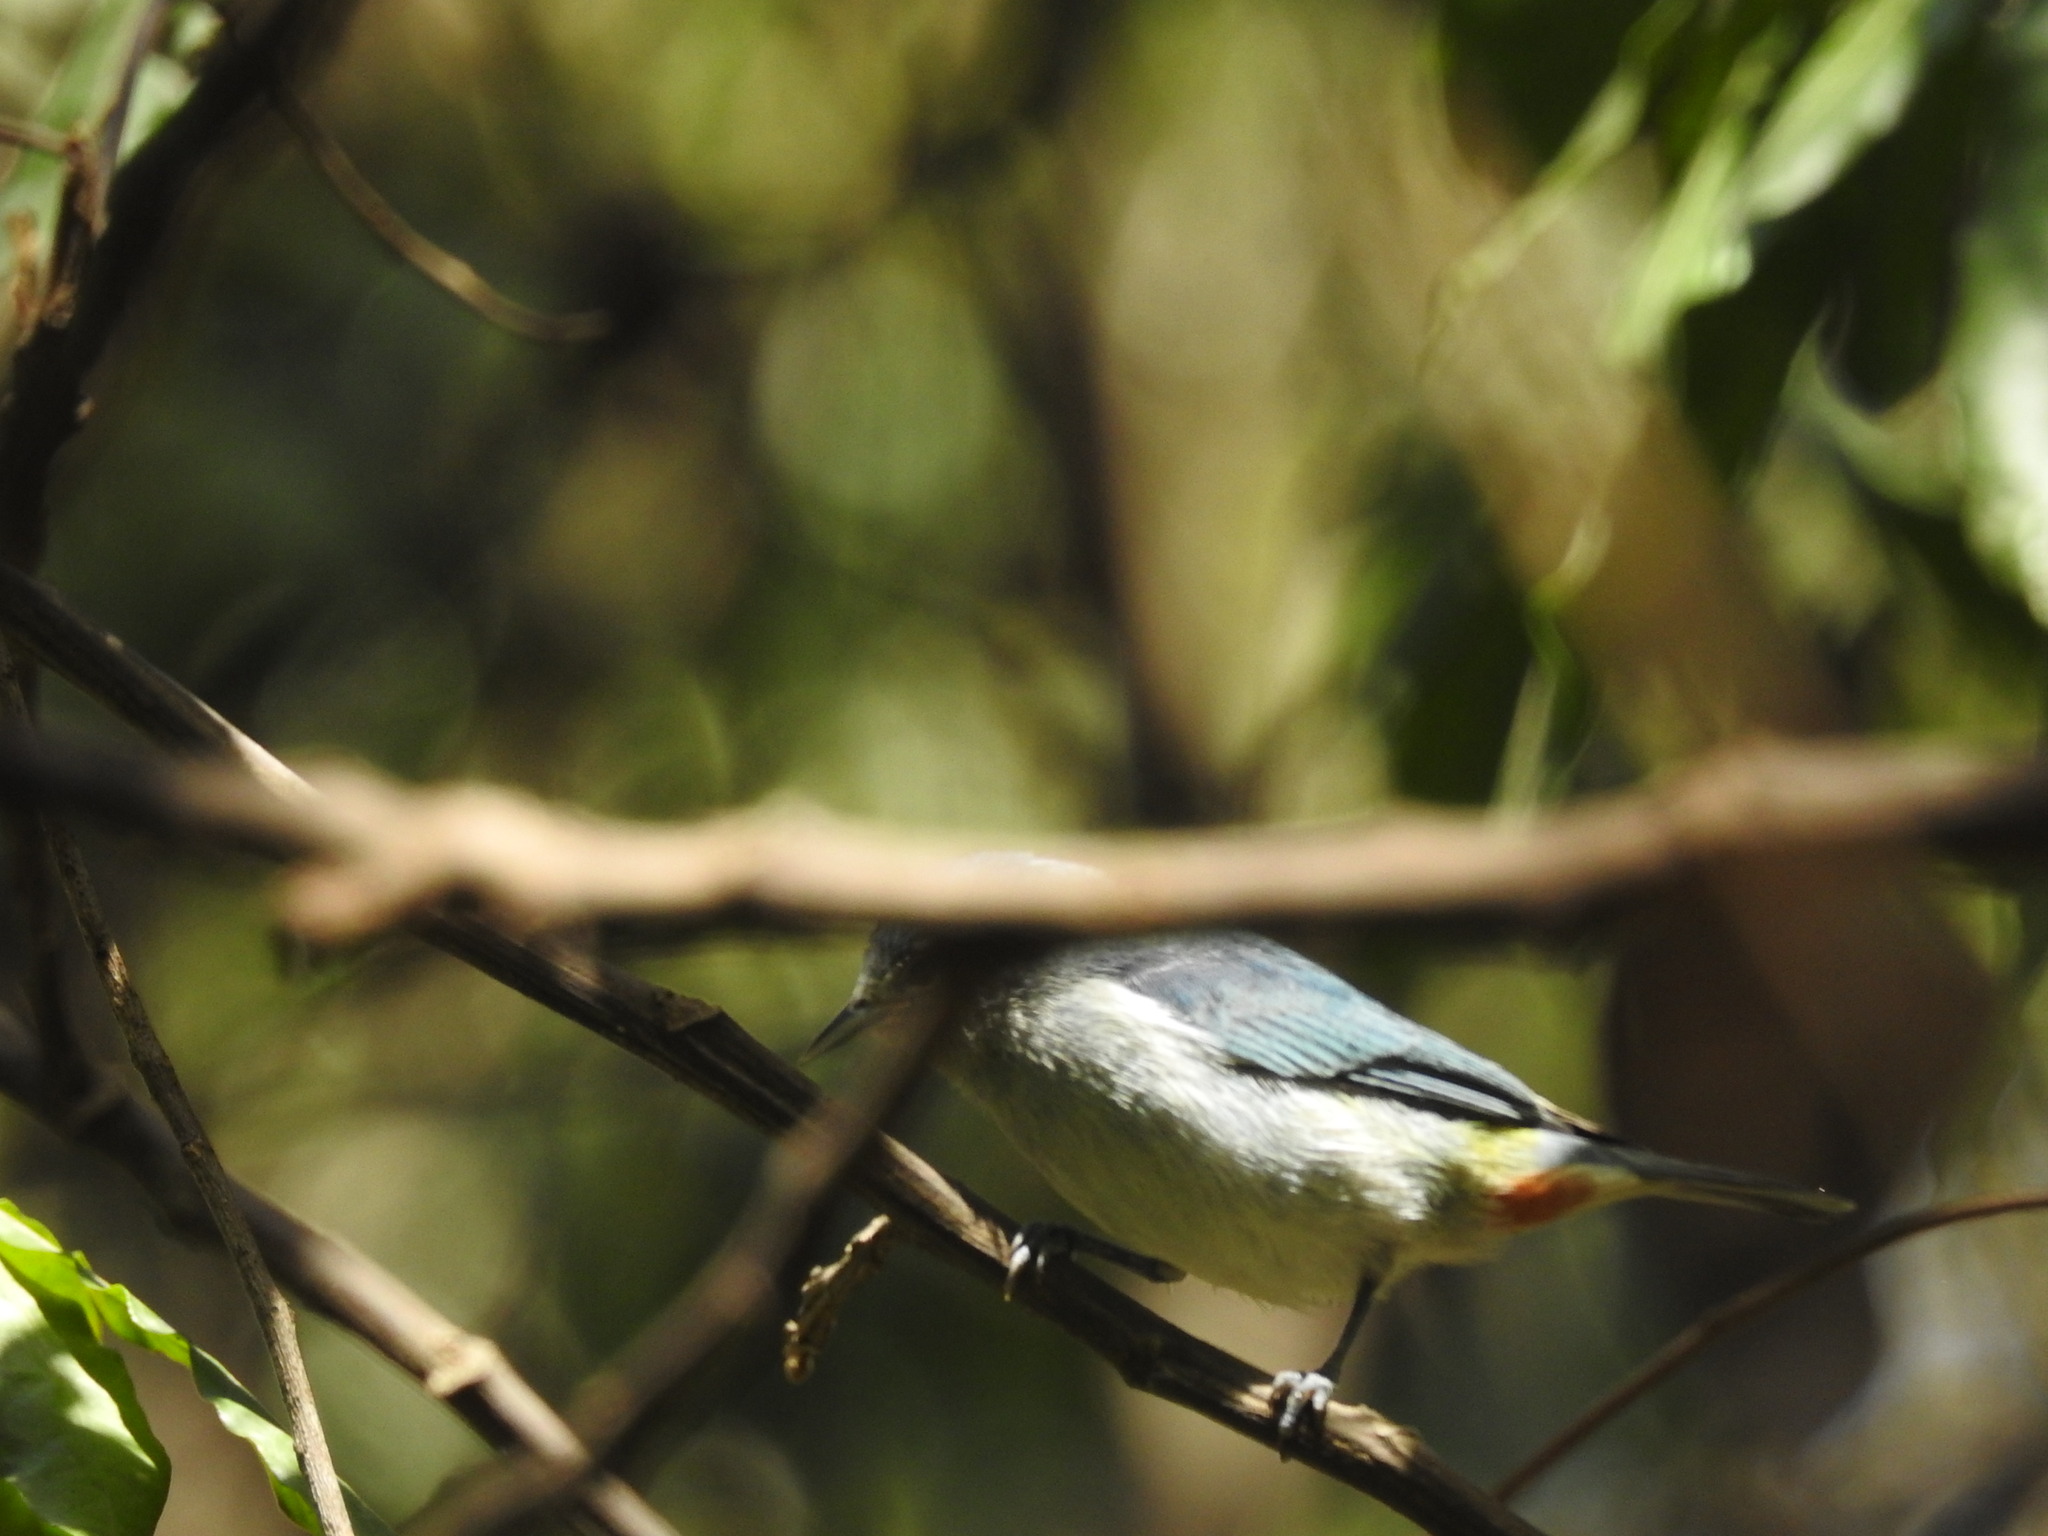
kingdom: Animalia
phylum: Chordata
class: Aves
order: Passeriformes
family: Thraupidae
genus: Conirostrum
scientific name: Conirostrum speciosum
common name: Chestnut-vented conebill
